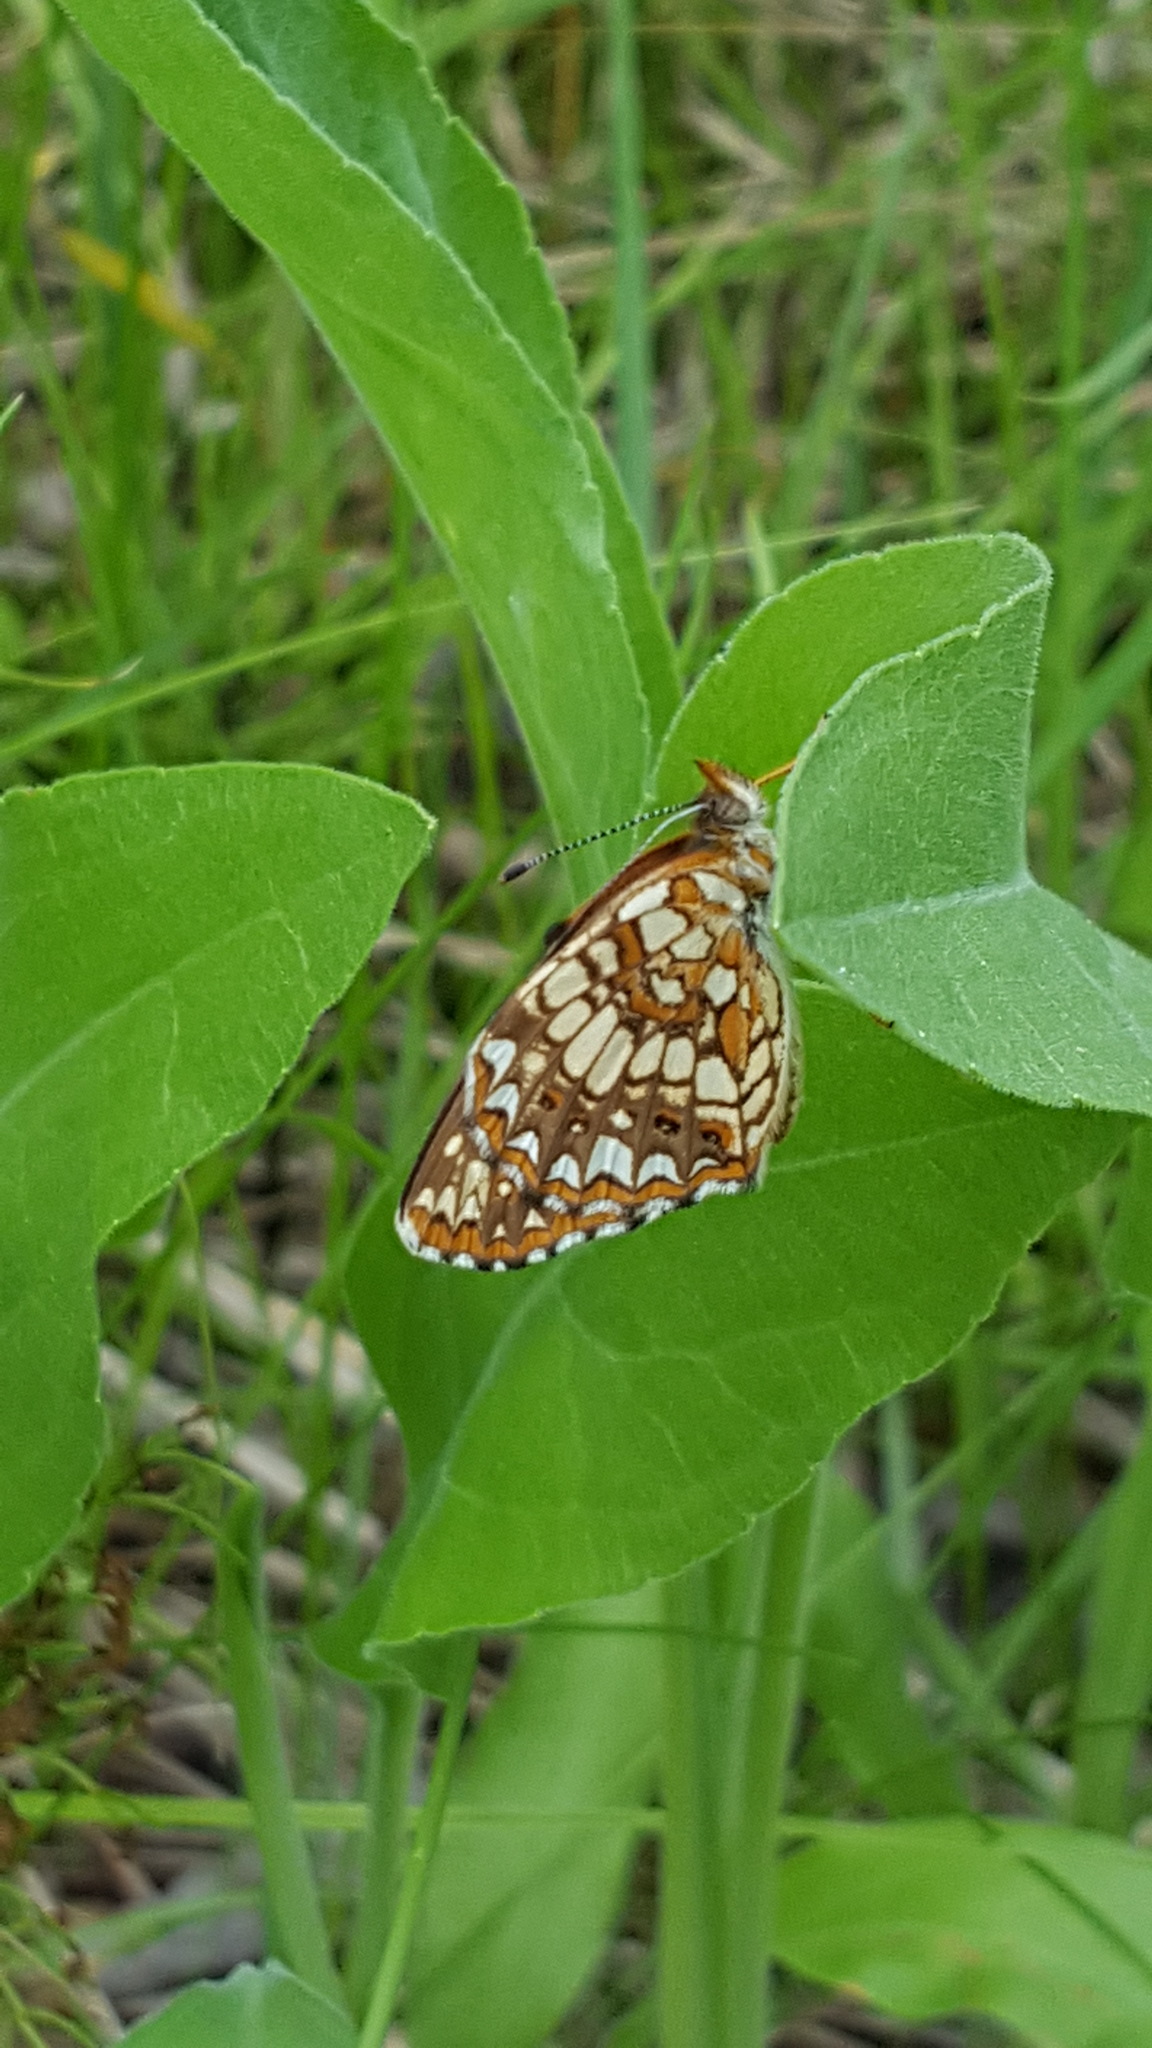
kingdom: Animalia
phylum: Arthropoda
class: Insecta
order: Lepidoptera
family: Nymphalidae
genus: Chlosyne
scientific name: Chlosyne harrisii
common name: Harris's checkerspot
